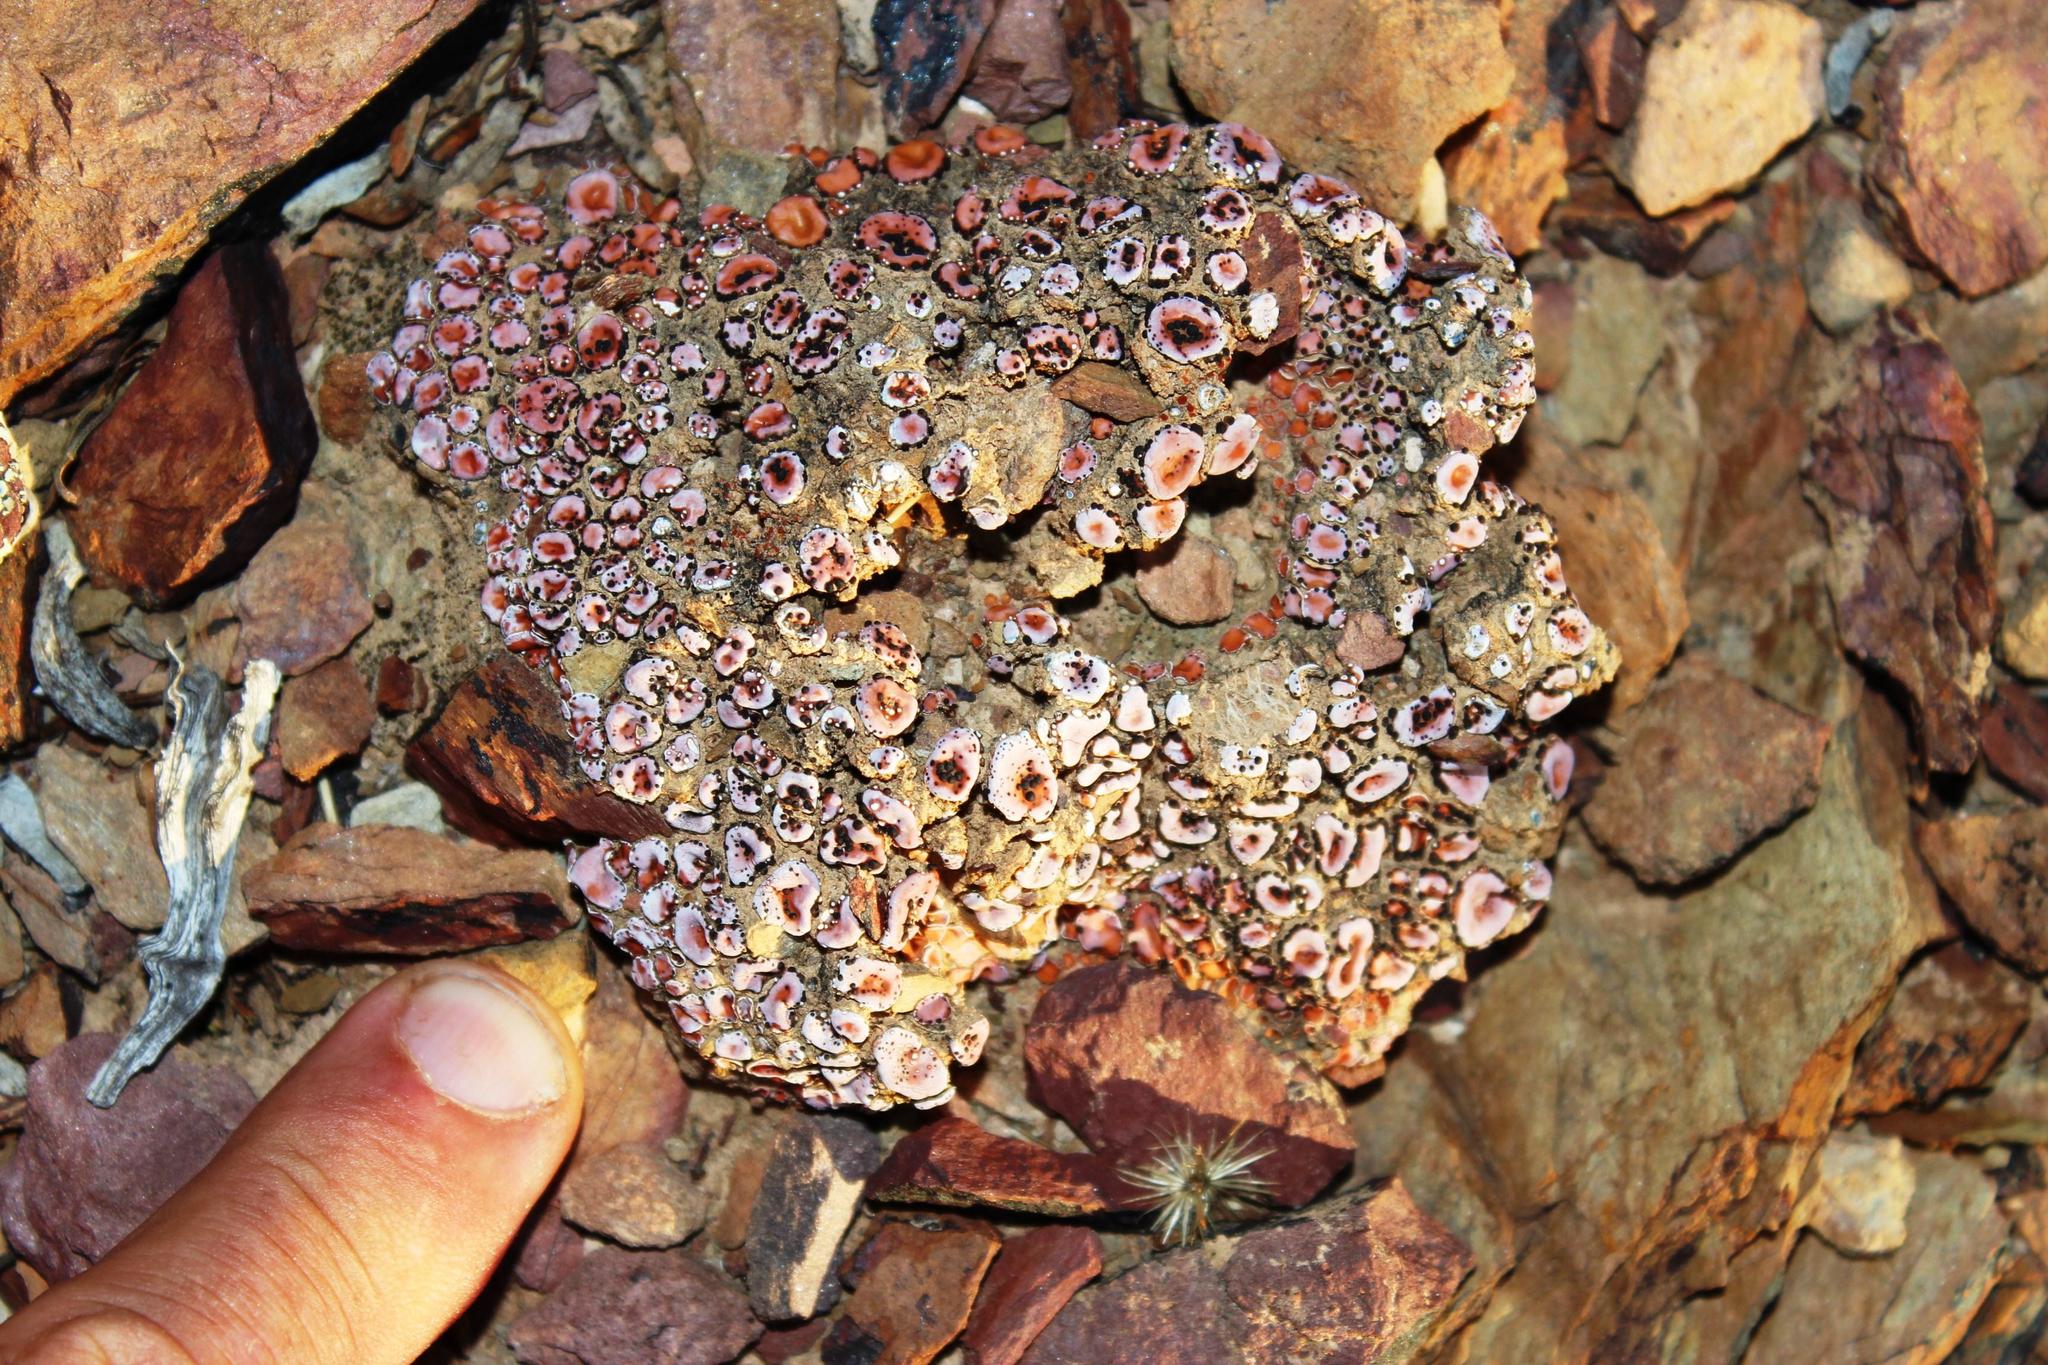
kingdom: Fungi
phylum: Ascomycota
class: Lecanoromycetes
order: Lecanorales
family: Psoraceae
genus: Psora
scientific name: Psora crenata
